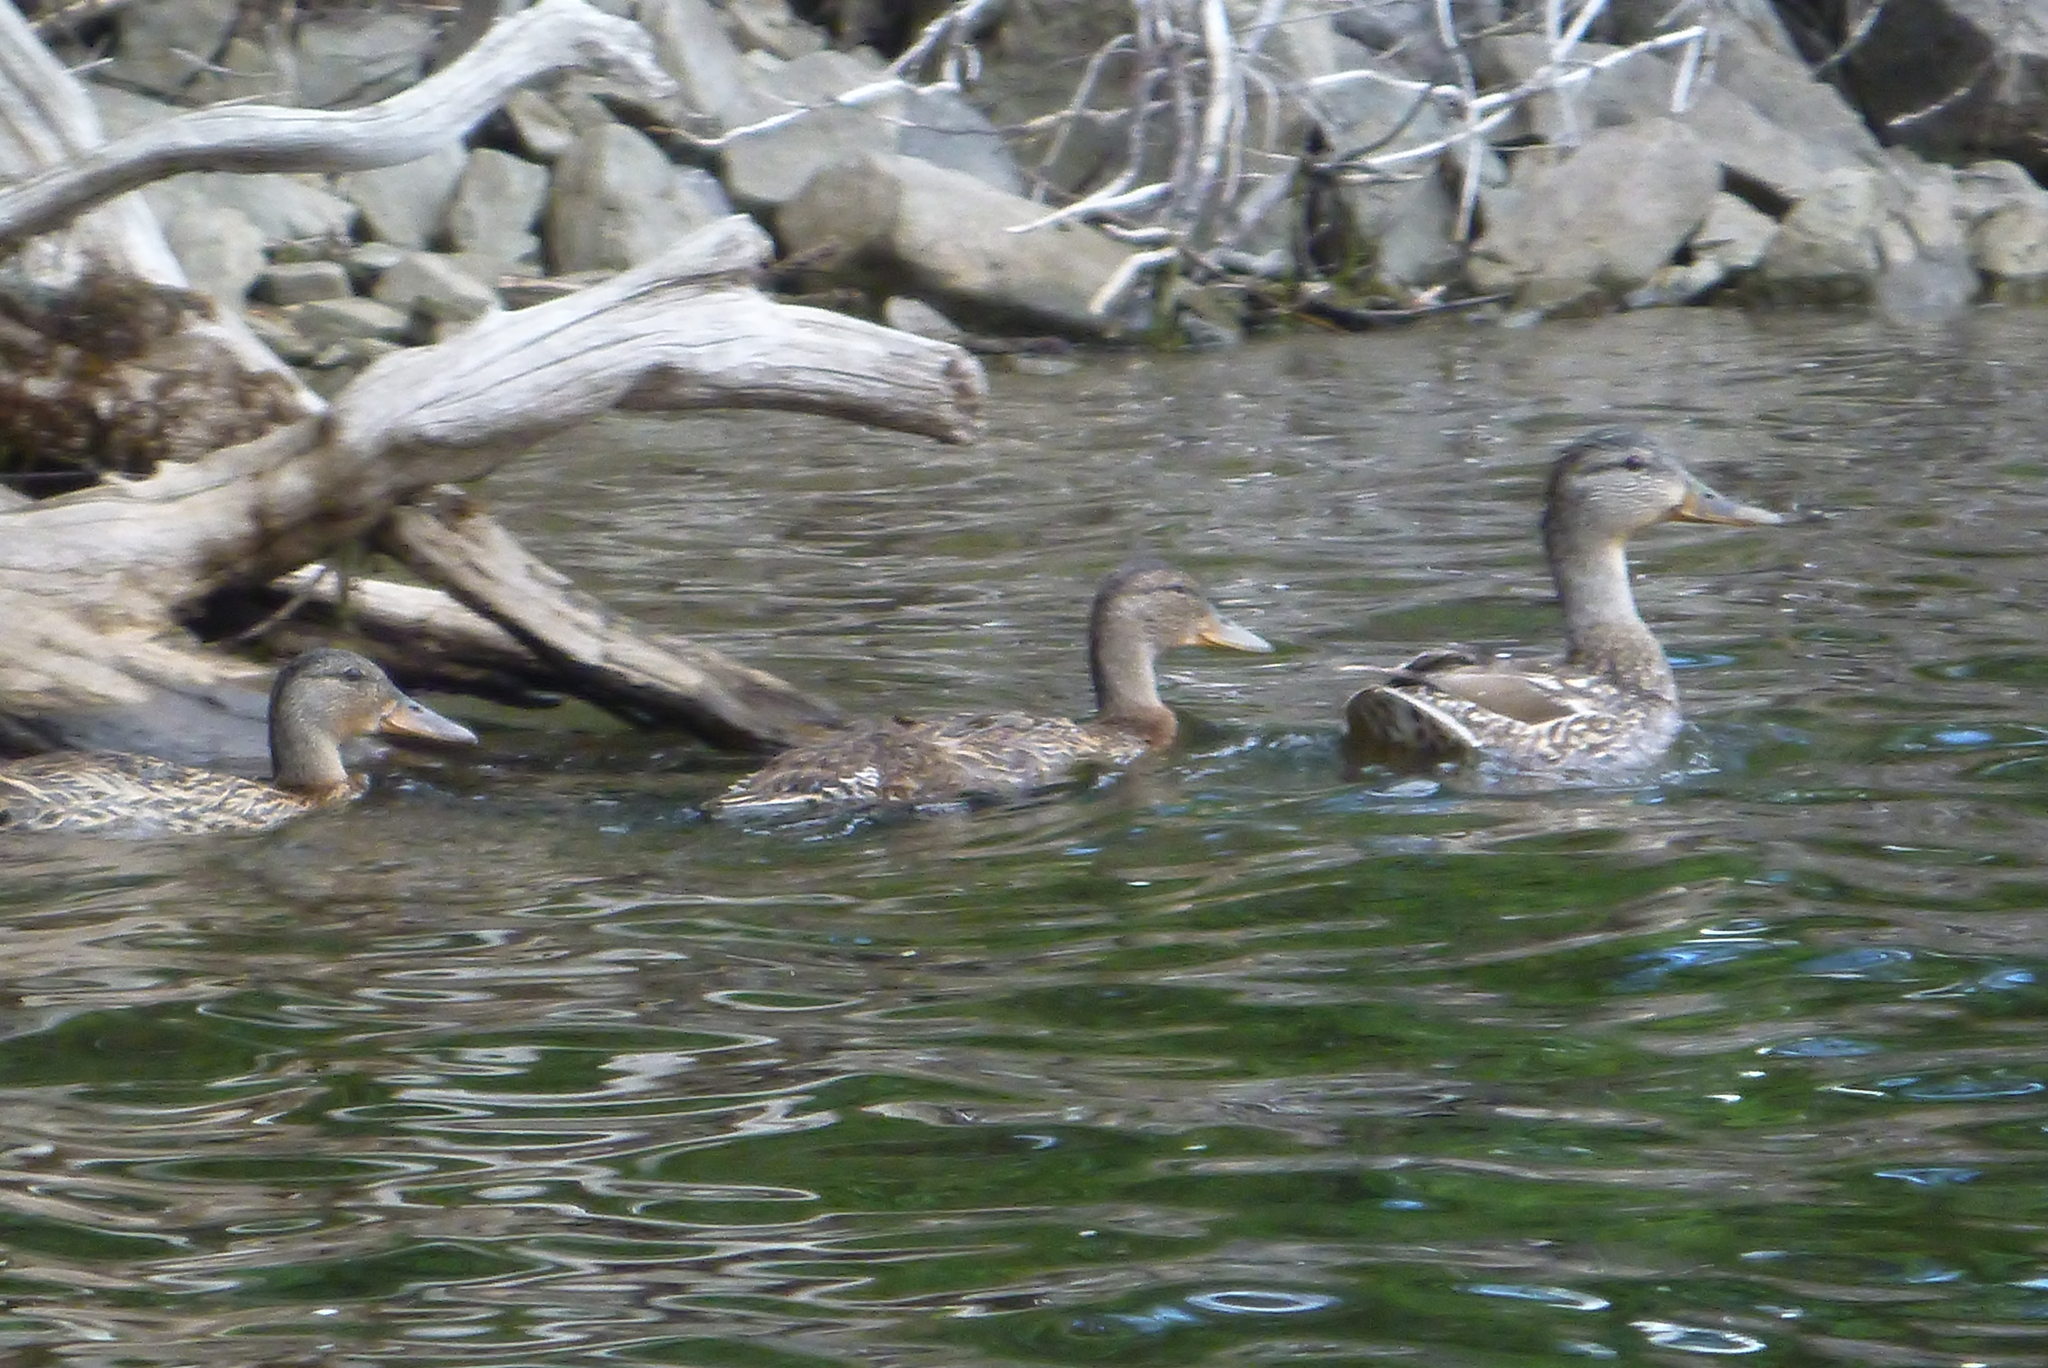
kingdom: Animalia
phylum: Chordata
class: Aves
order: Anseriformes
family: Anatidae
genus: Anas
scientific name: Anas platyrhynchos
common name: Mallard
